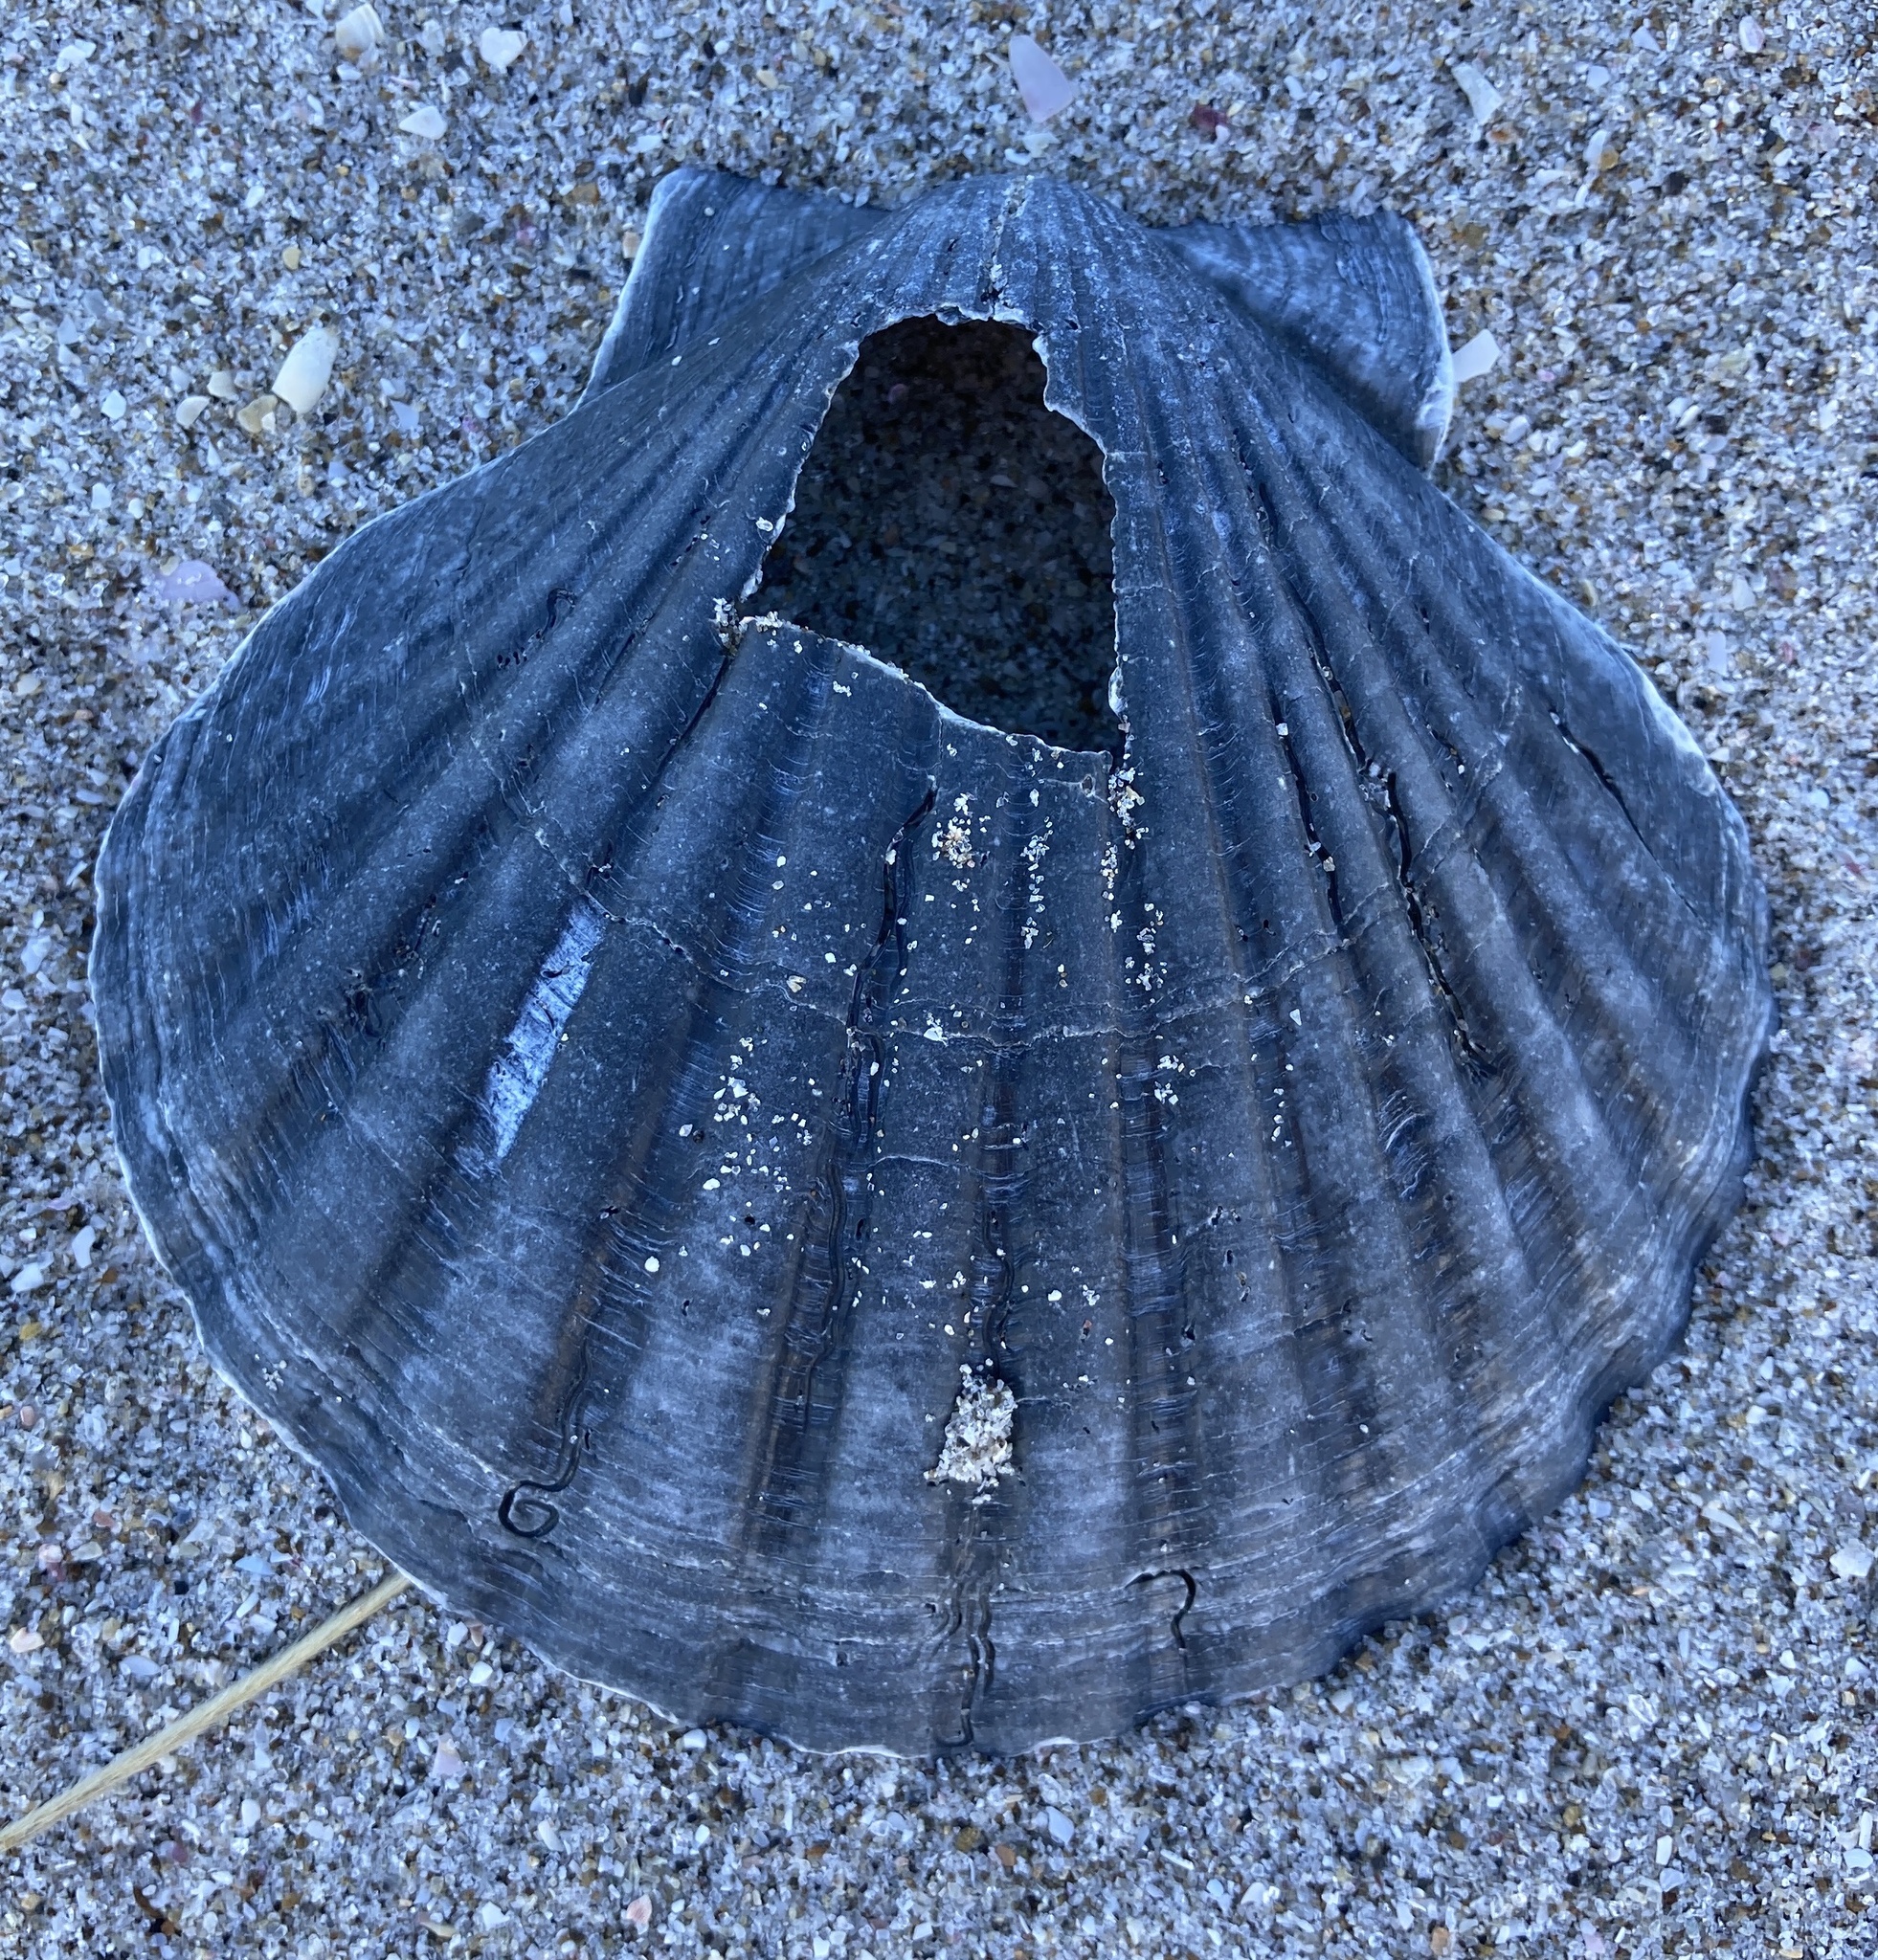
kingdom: Animalia
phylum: Mollusca
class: Bivalvia
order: Pectinida
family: Pectinidae
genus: Pecten
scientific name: Pecten novaezelandiae
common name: New zealand scallop
